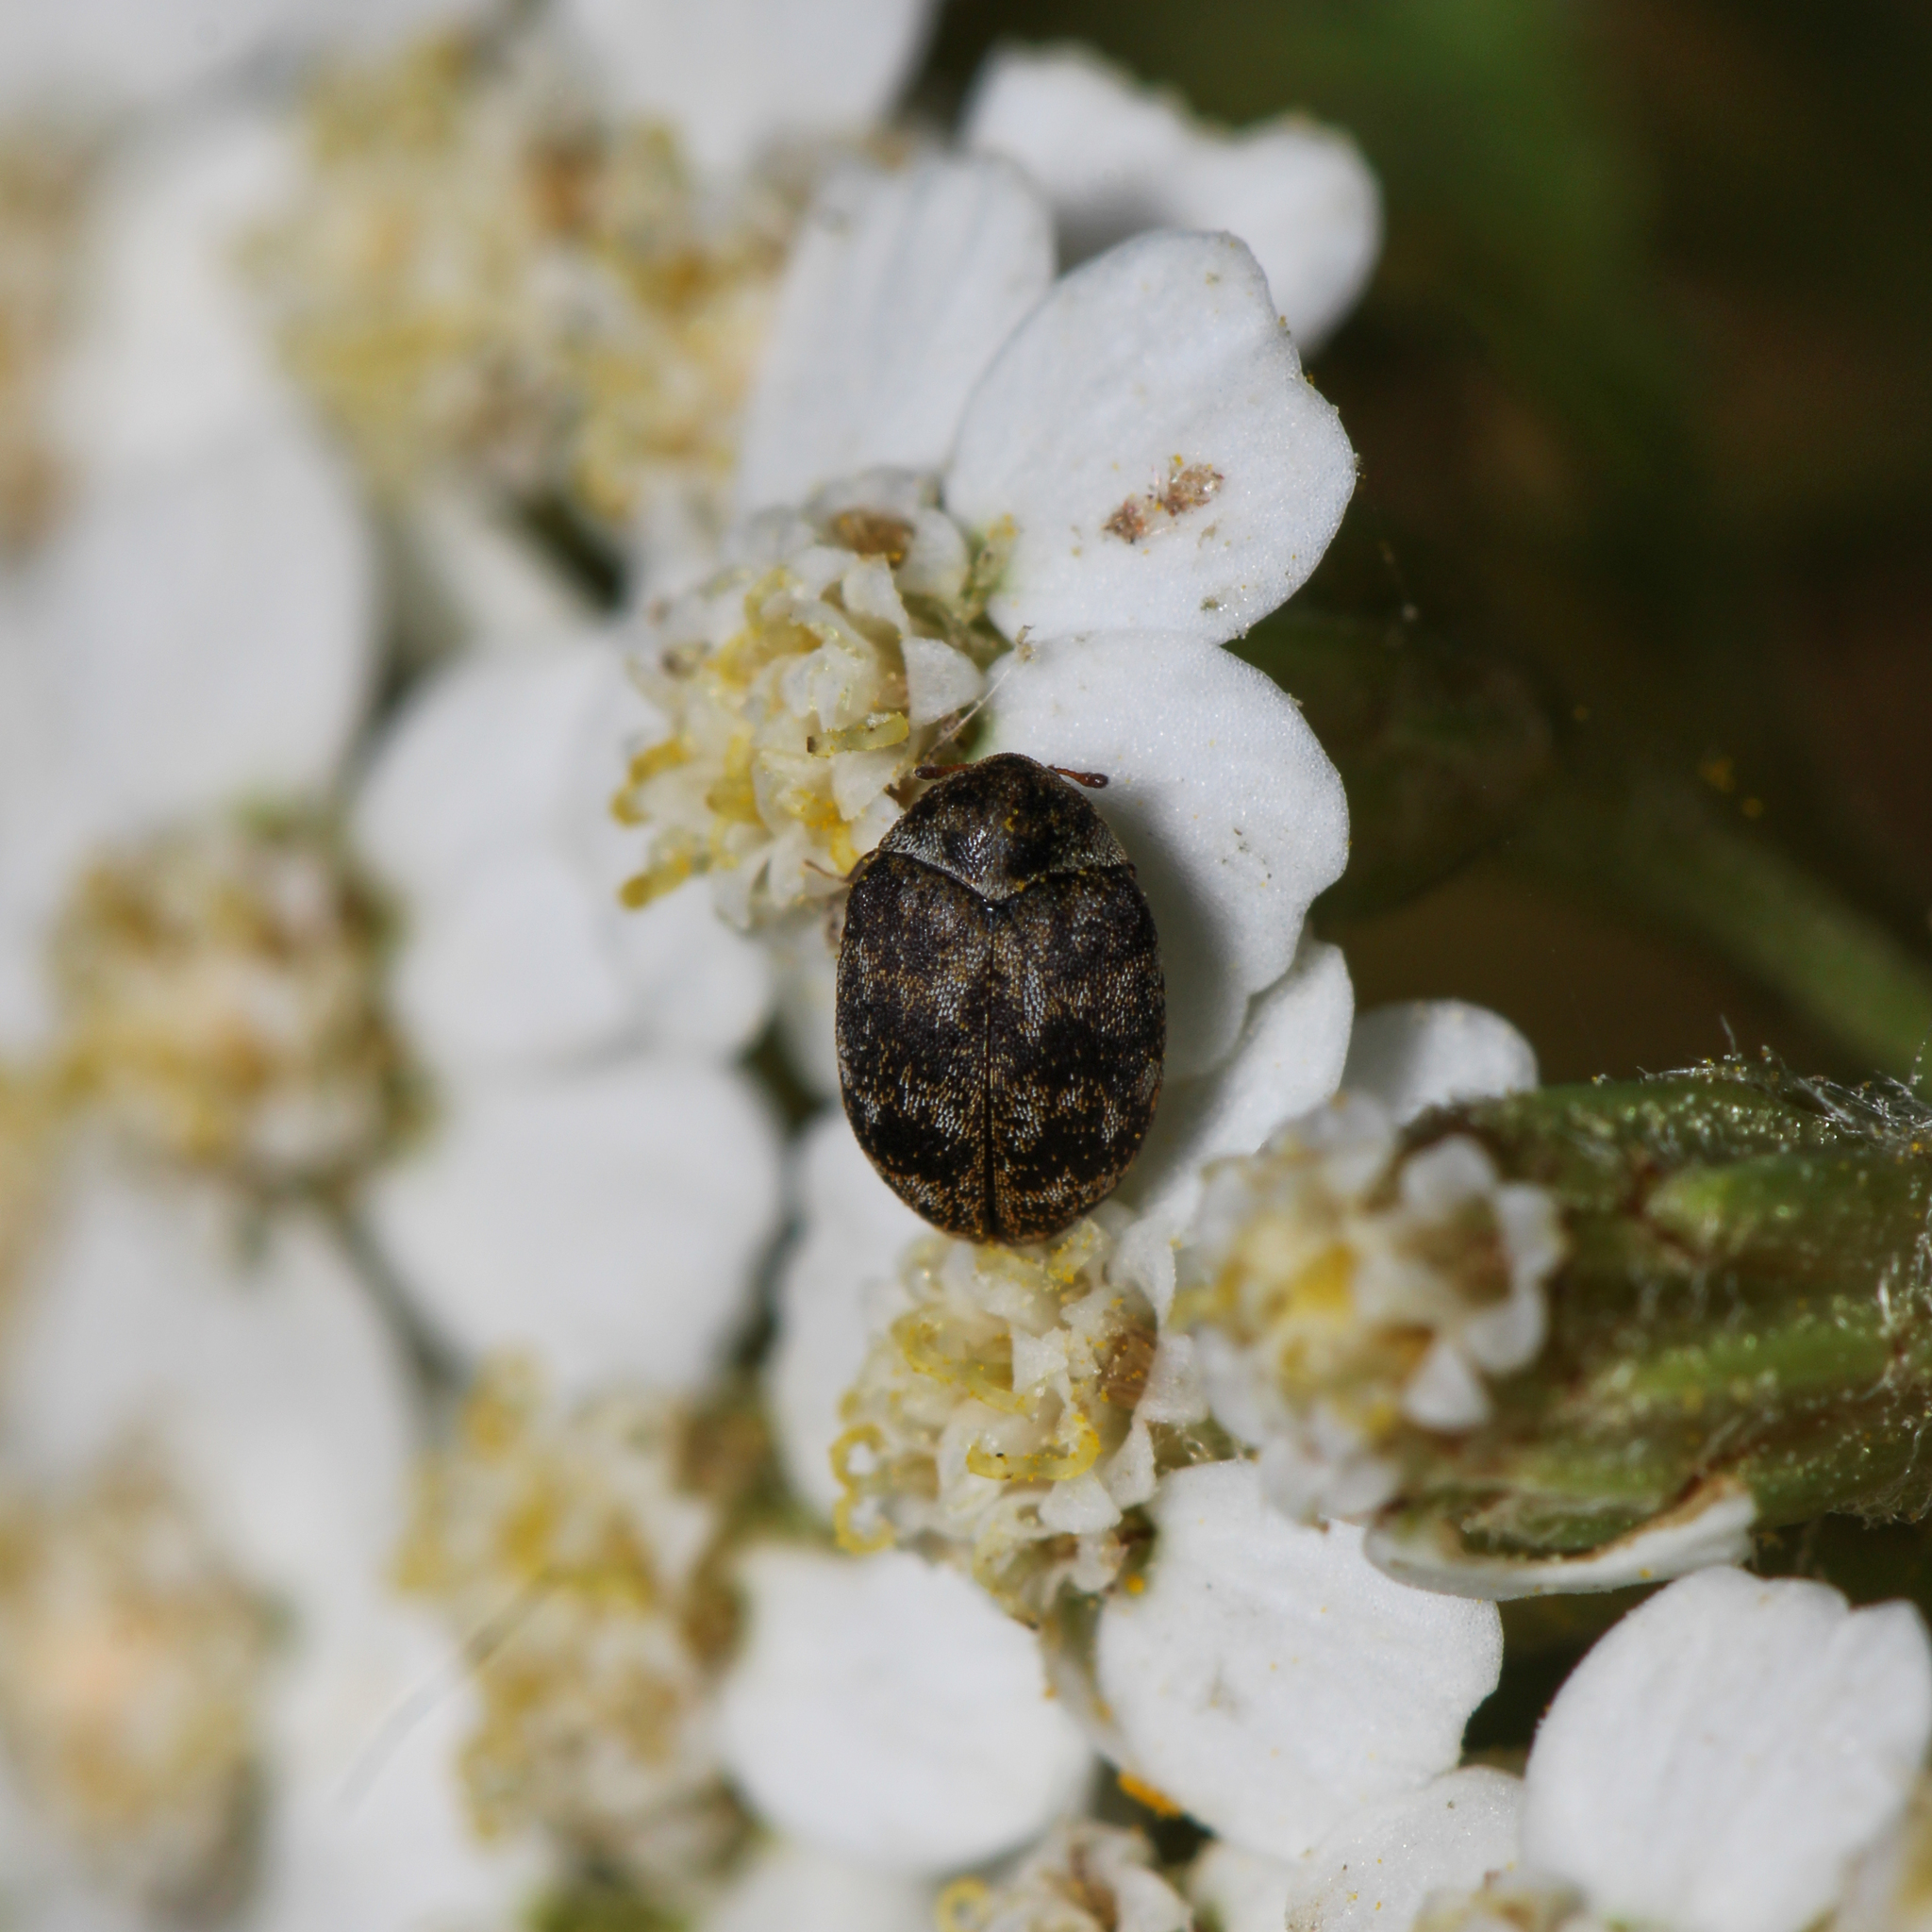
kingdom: Animalia
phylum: Arthropoda
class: Insecta
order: Coleoptera
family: Dermestidae
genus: Anthrenus
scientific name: Anthrenus verbasci
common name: Varied carpet beetle
